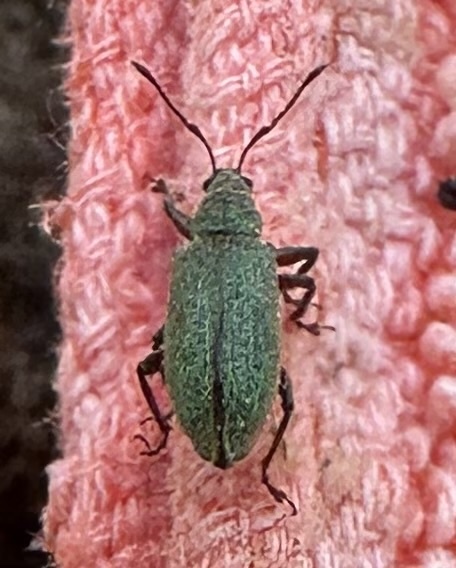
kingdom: Animalia
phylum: Arthropoda
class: Insecta
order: Coleoptera
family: Curculionidae
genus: Parascythopus
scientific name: Parascythopus intrusus
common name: Weevil
